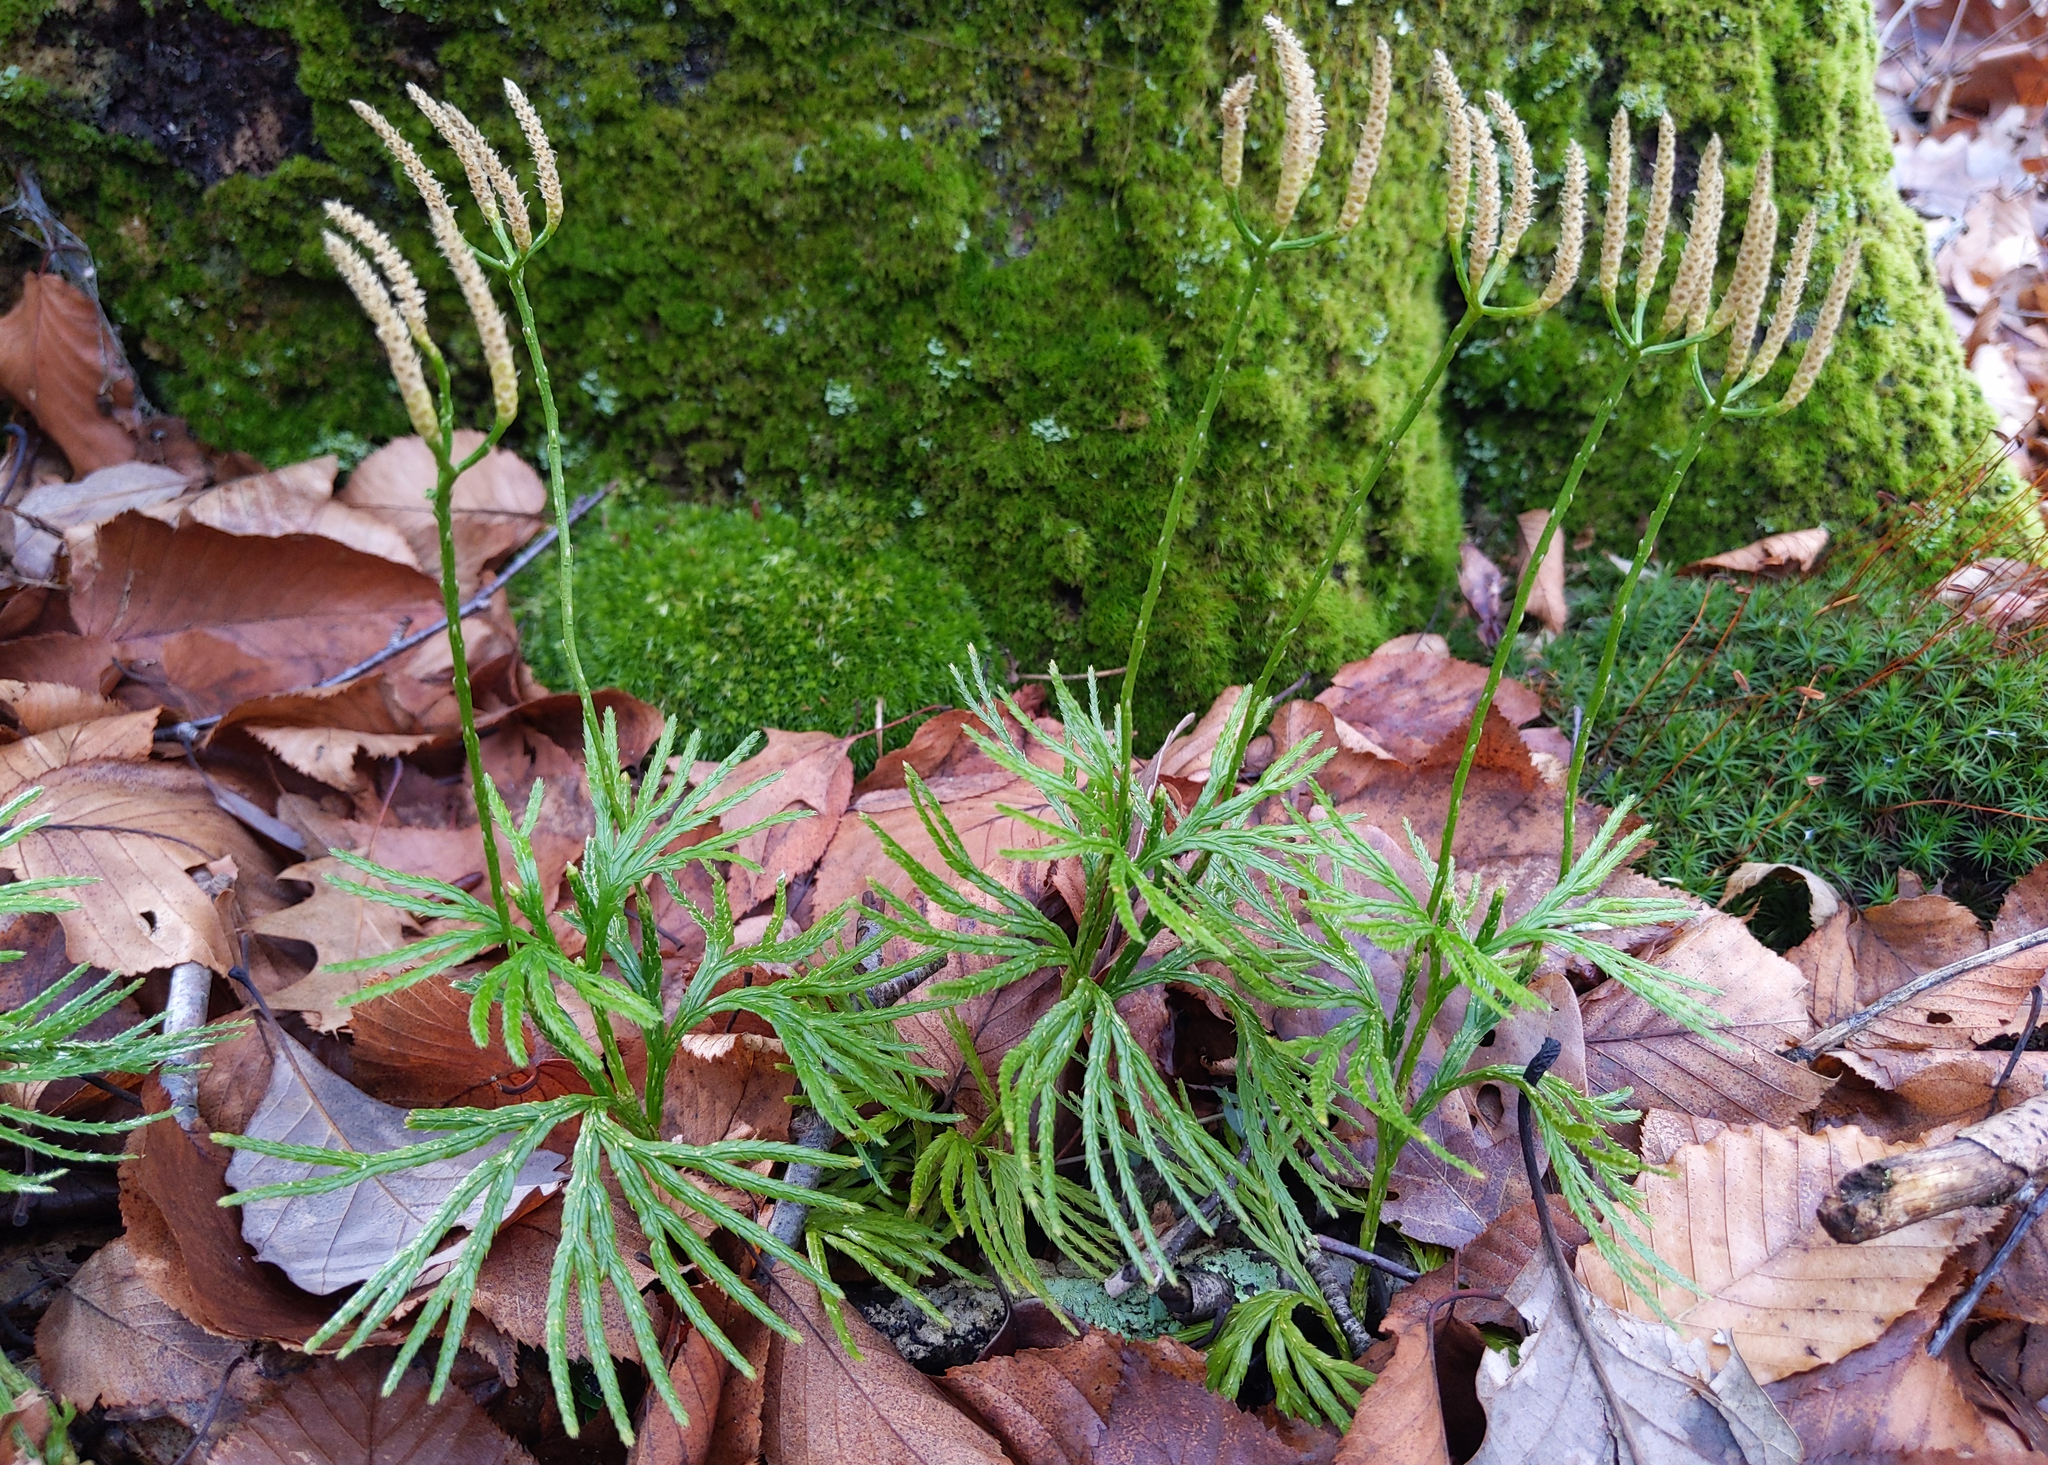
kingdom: Plantae
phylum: Tracheophyta
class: Lycopodiopsida
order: Lycopodiales
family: Lycopodiaceae
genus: Diphasiastrum
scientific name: Diphasiastrum digitatum
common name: Southern running-pine
